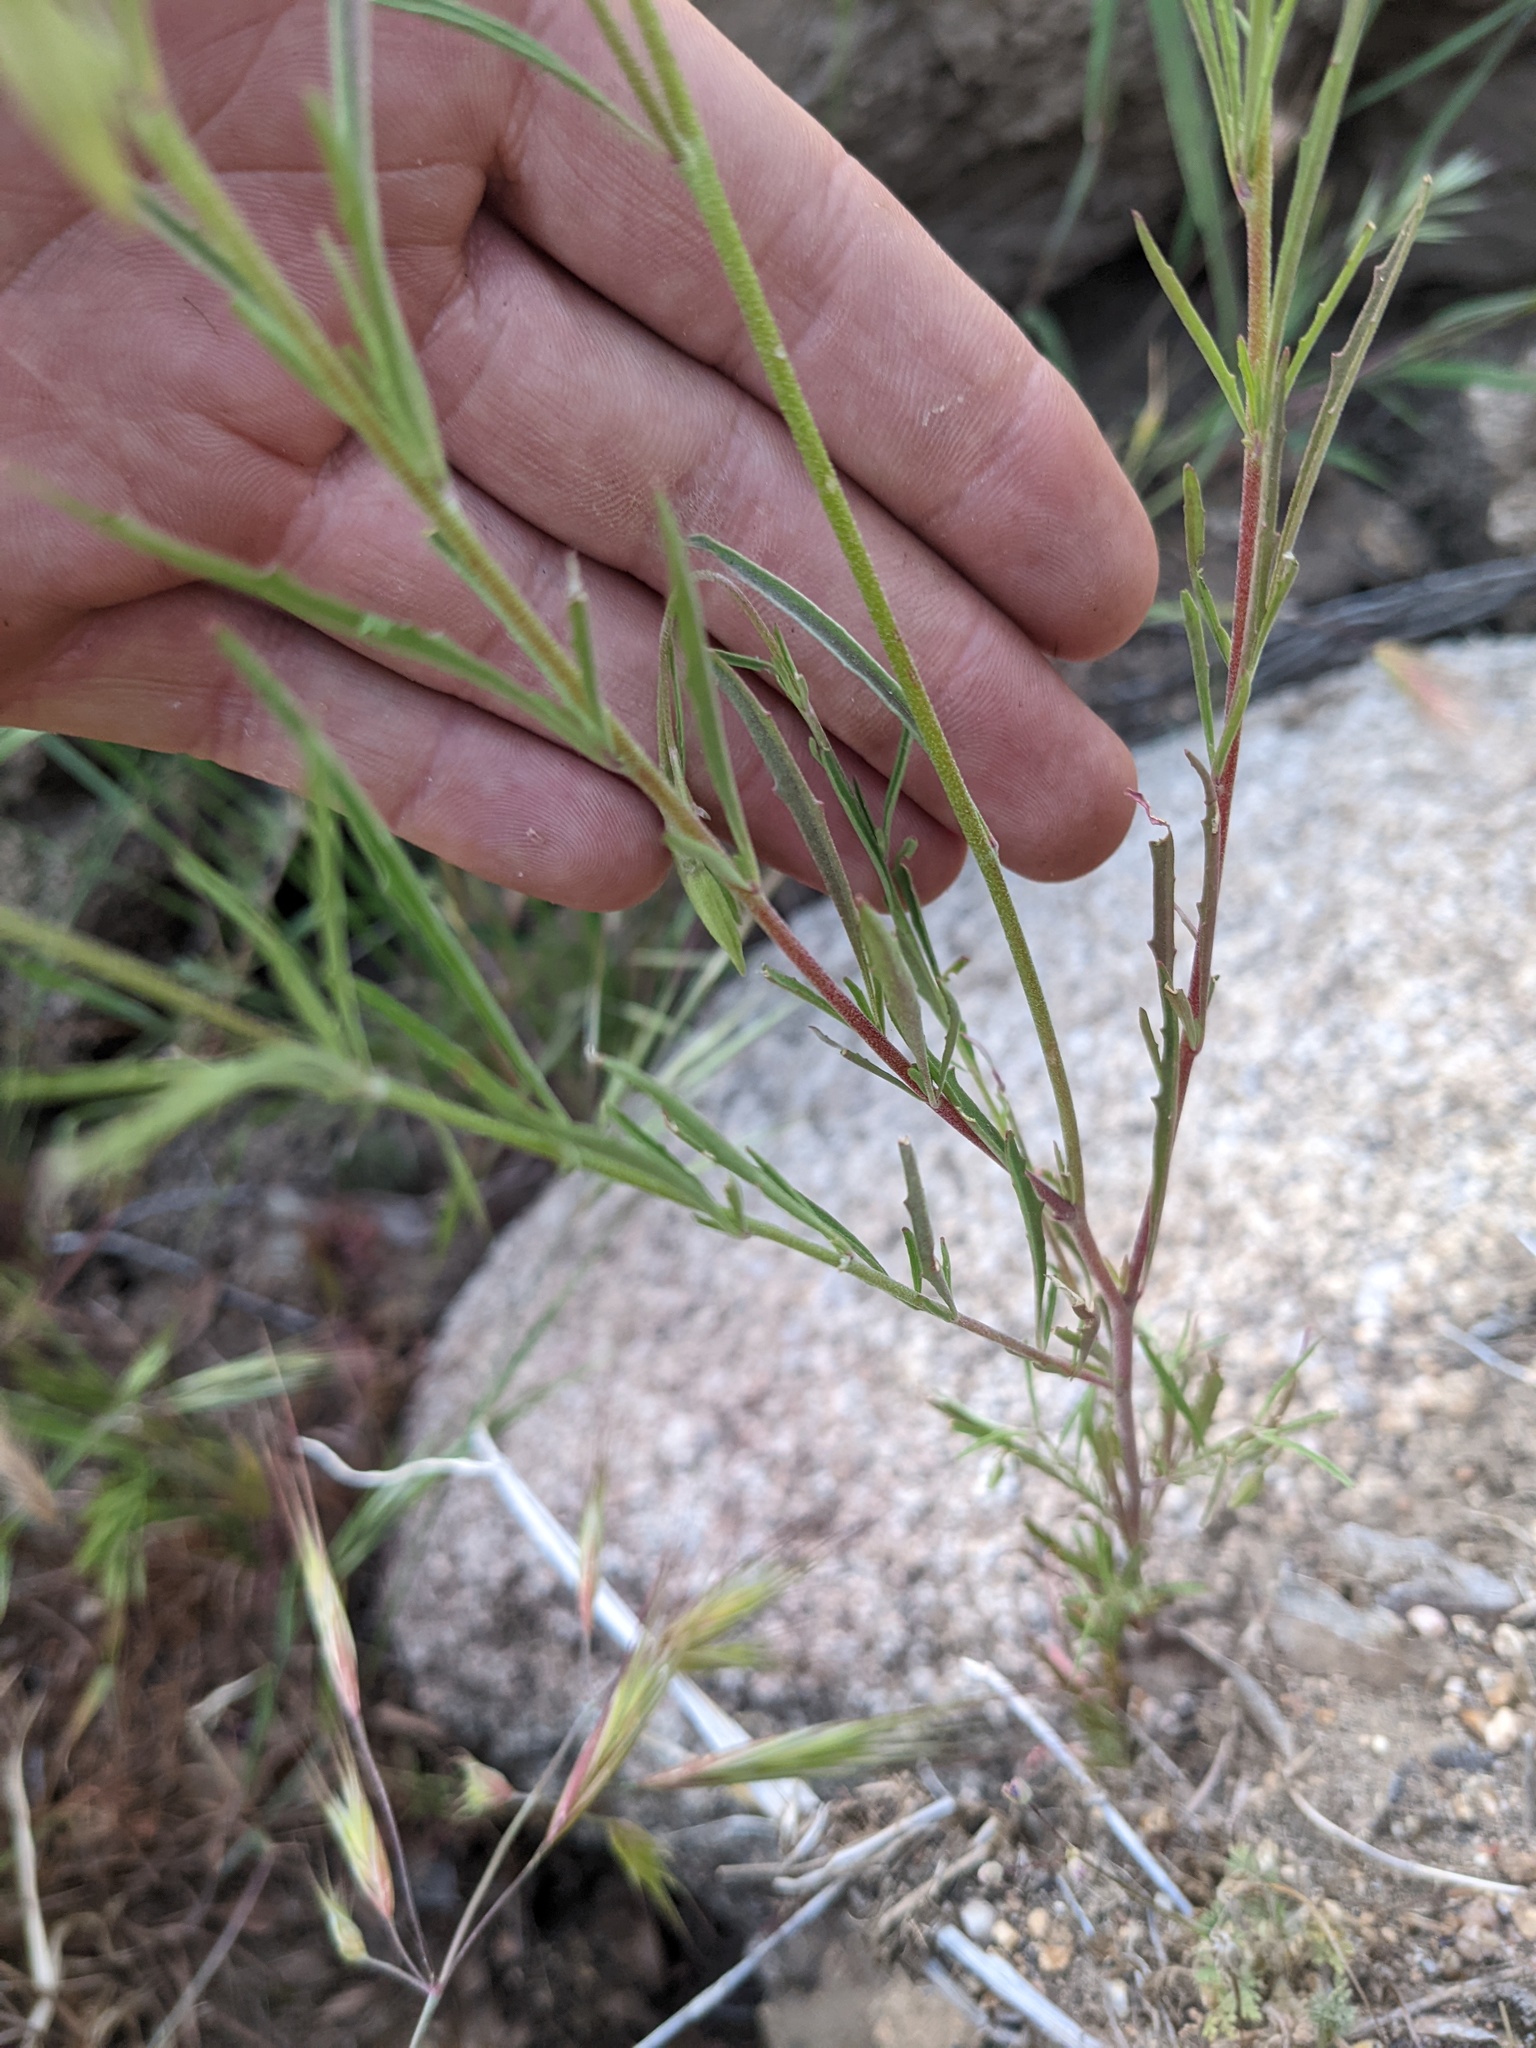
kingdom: Plantae
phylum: Tracheophyta
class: Magnoliopsida
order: Myrtales
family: Onagraceae
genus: Clarkia
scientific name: Clarkia cylindrica
